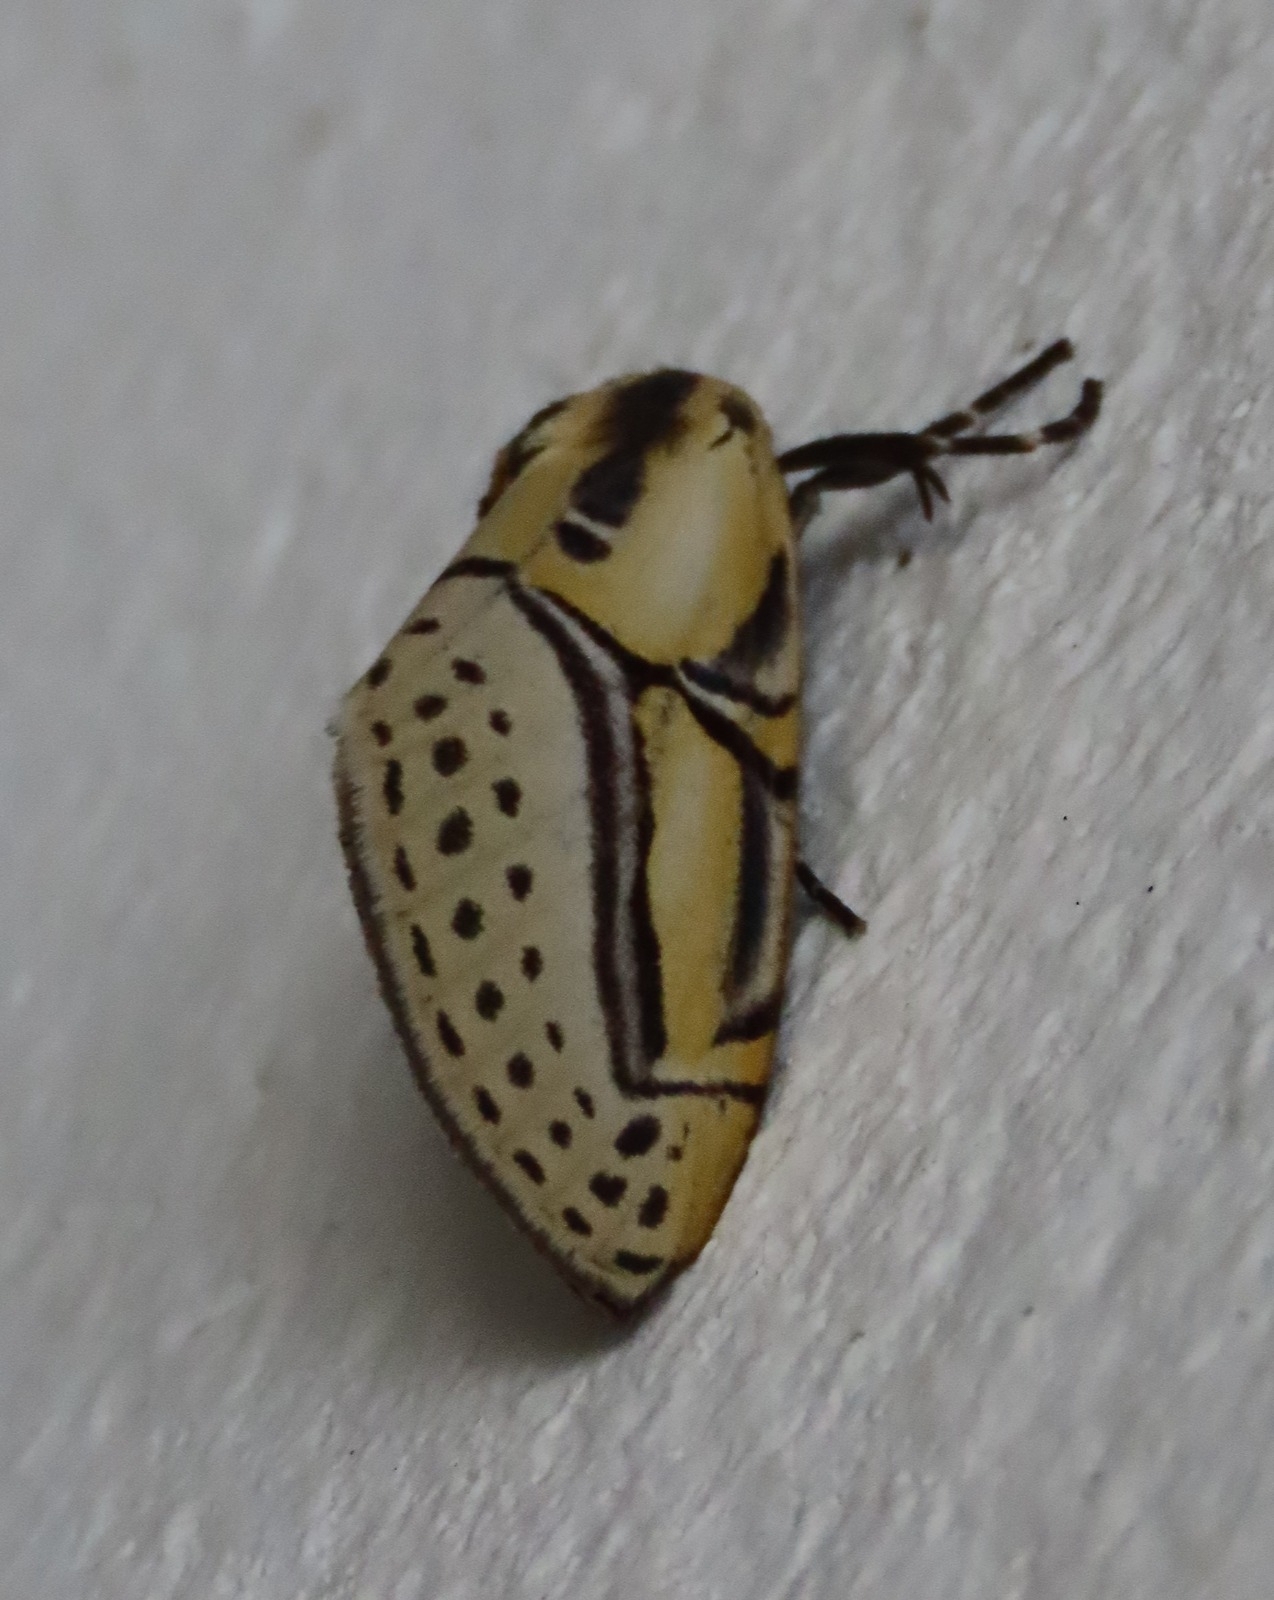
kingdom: Animalia
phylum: Arthropoda
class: Insecta
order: Lepidoptera
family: Erebidae
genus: Diphthera
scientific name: Diphthera festiva
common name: Hieroglyphic moth
